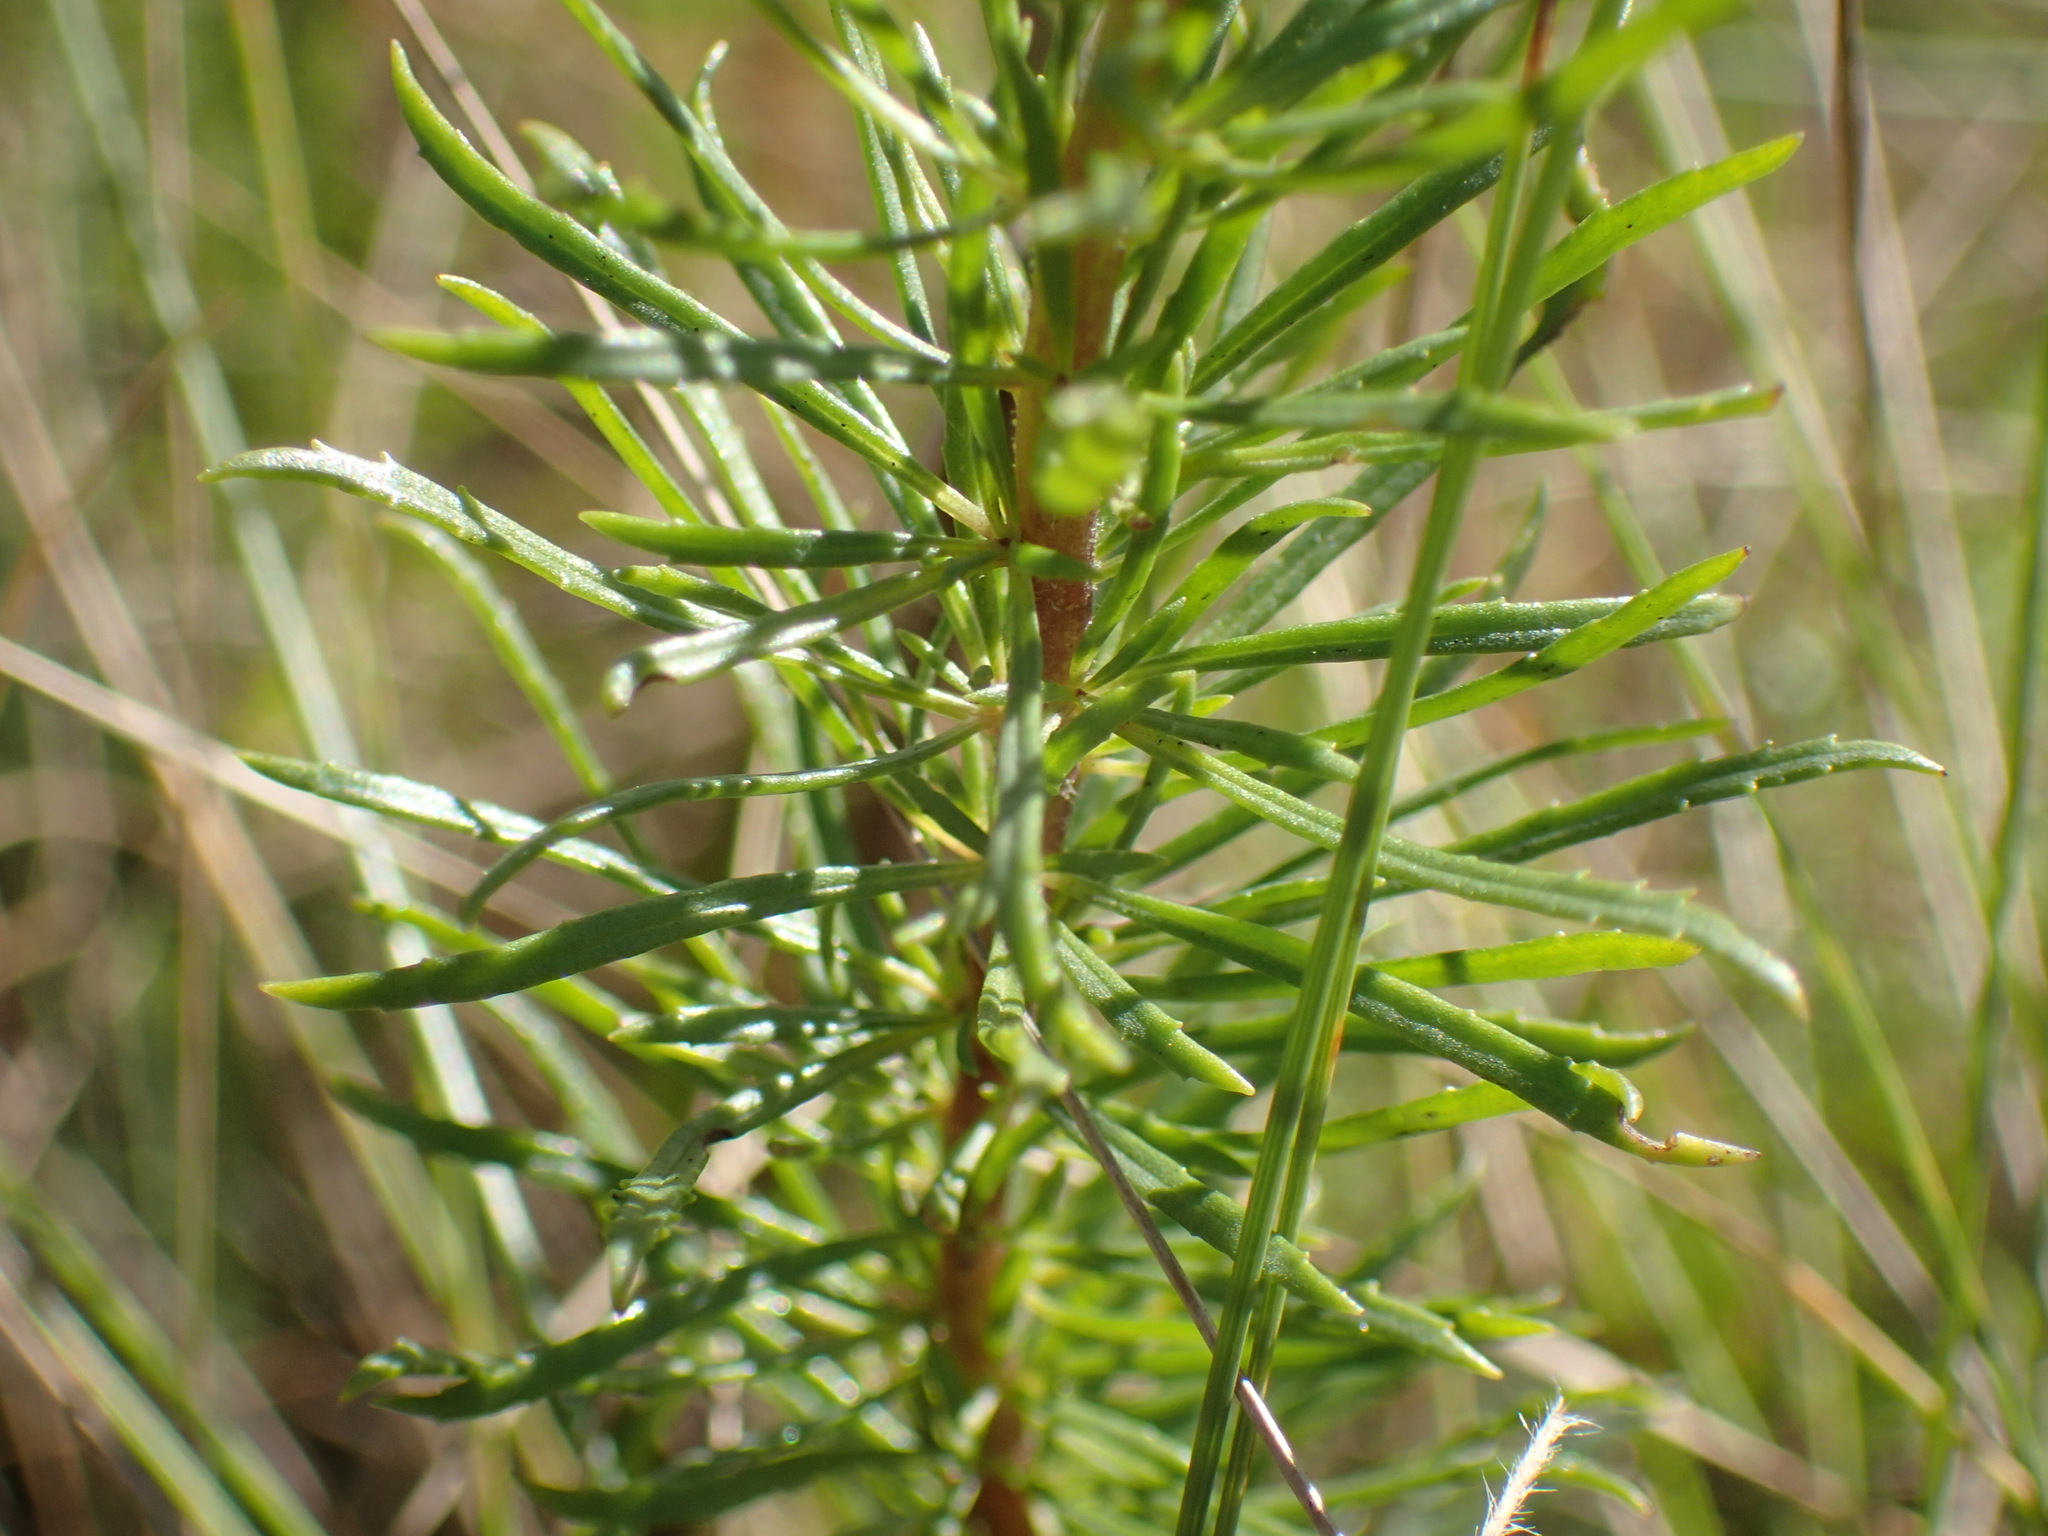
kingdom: Plantae
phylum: Tracheophyta
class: Magnoliopsida
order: Lamiales
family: Scrophulariaceae
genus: Tetraselago
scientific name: Tetraselago natalensis
